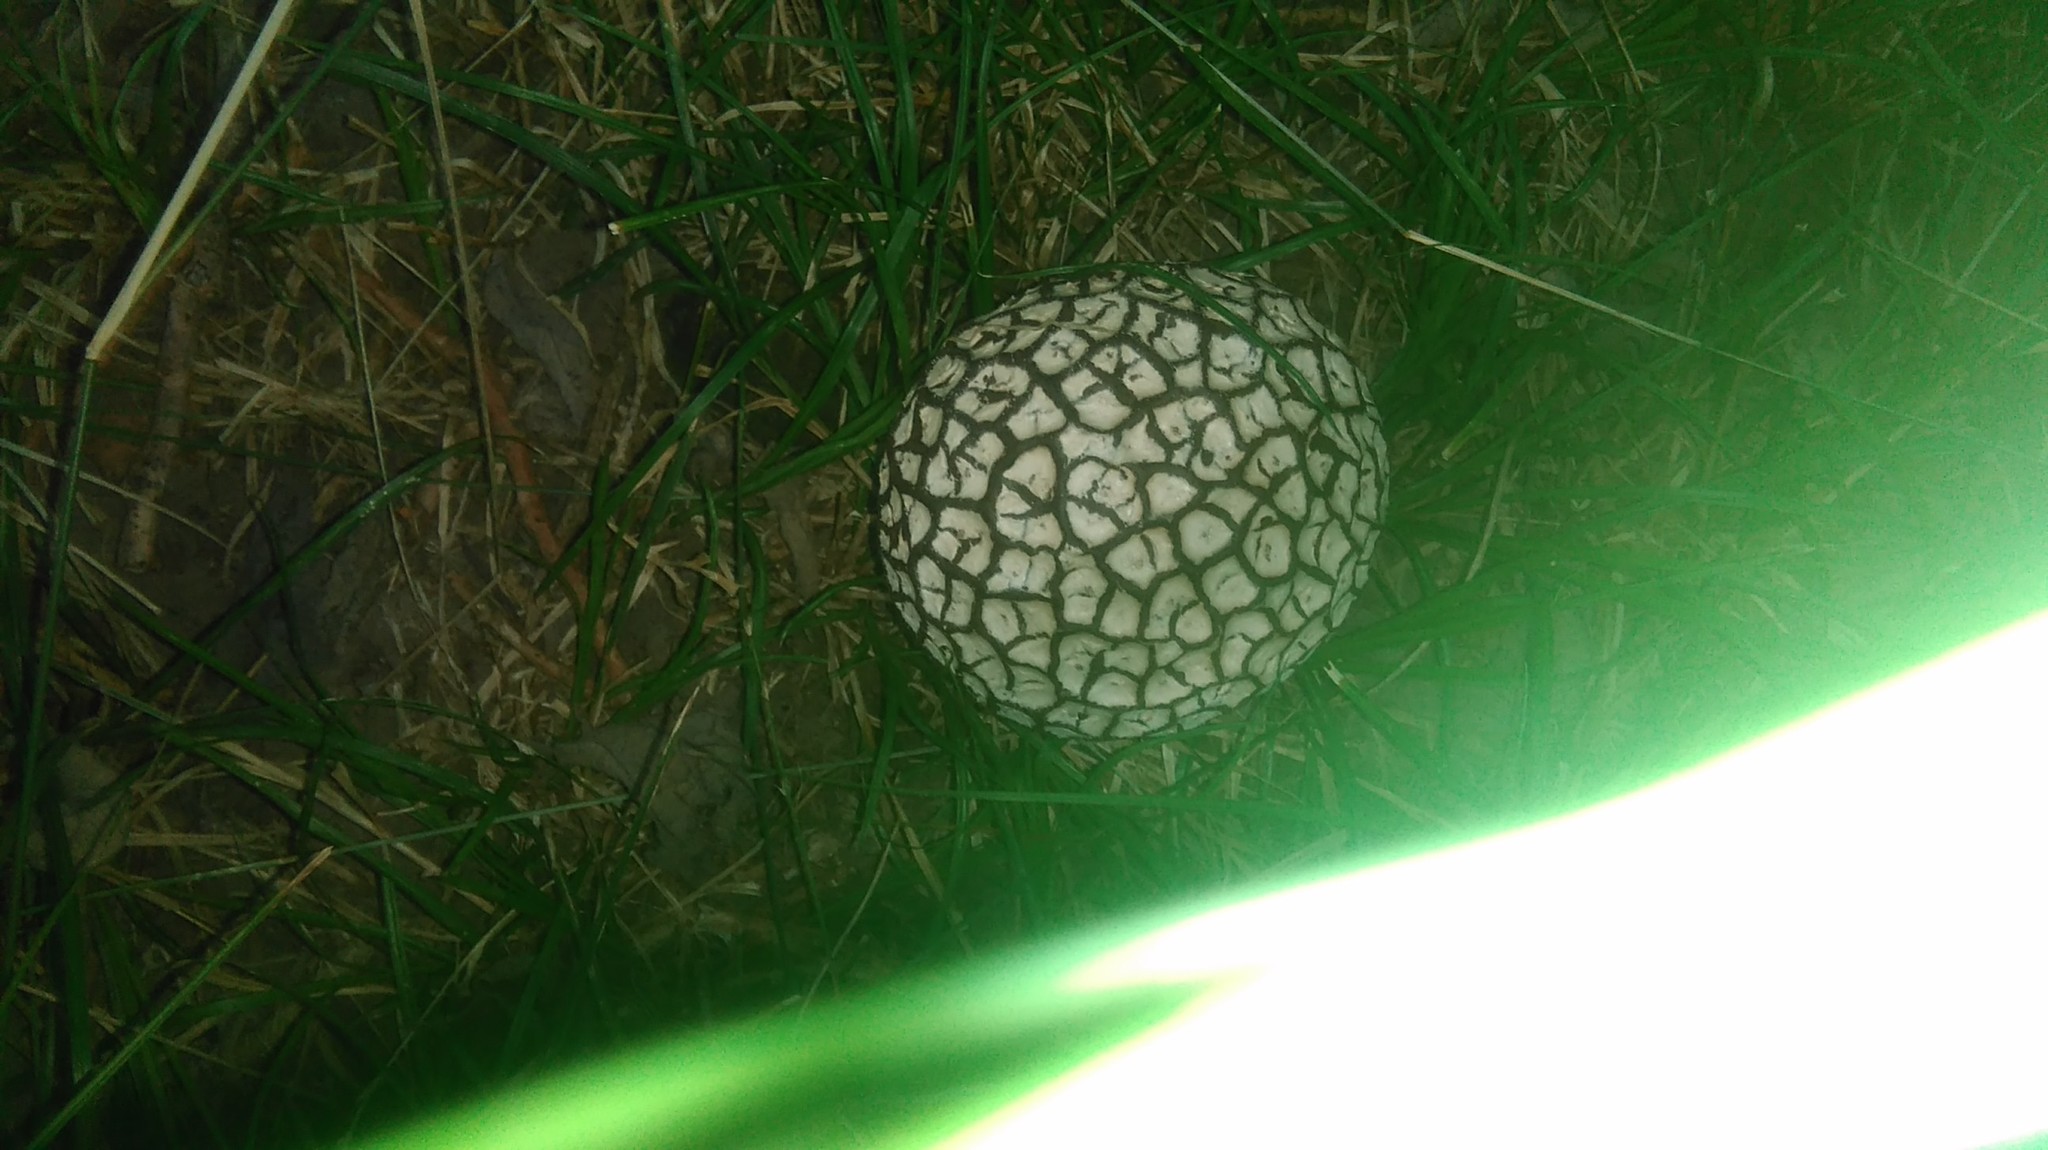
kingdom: Fungi
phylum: Basidiomycota
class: Agaricomycetes
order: Agaricales
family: Lycoperdaceae
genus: Calvatia
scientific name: Calvatia cyathiformis
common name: Purple-spored puffball
